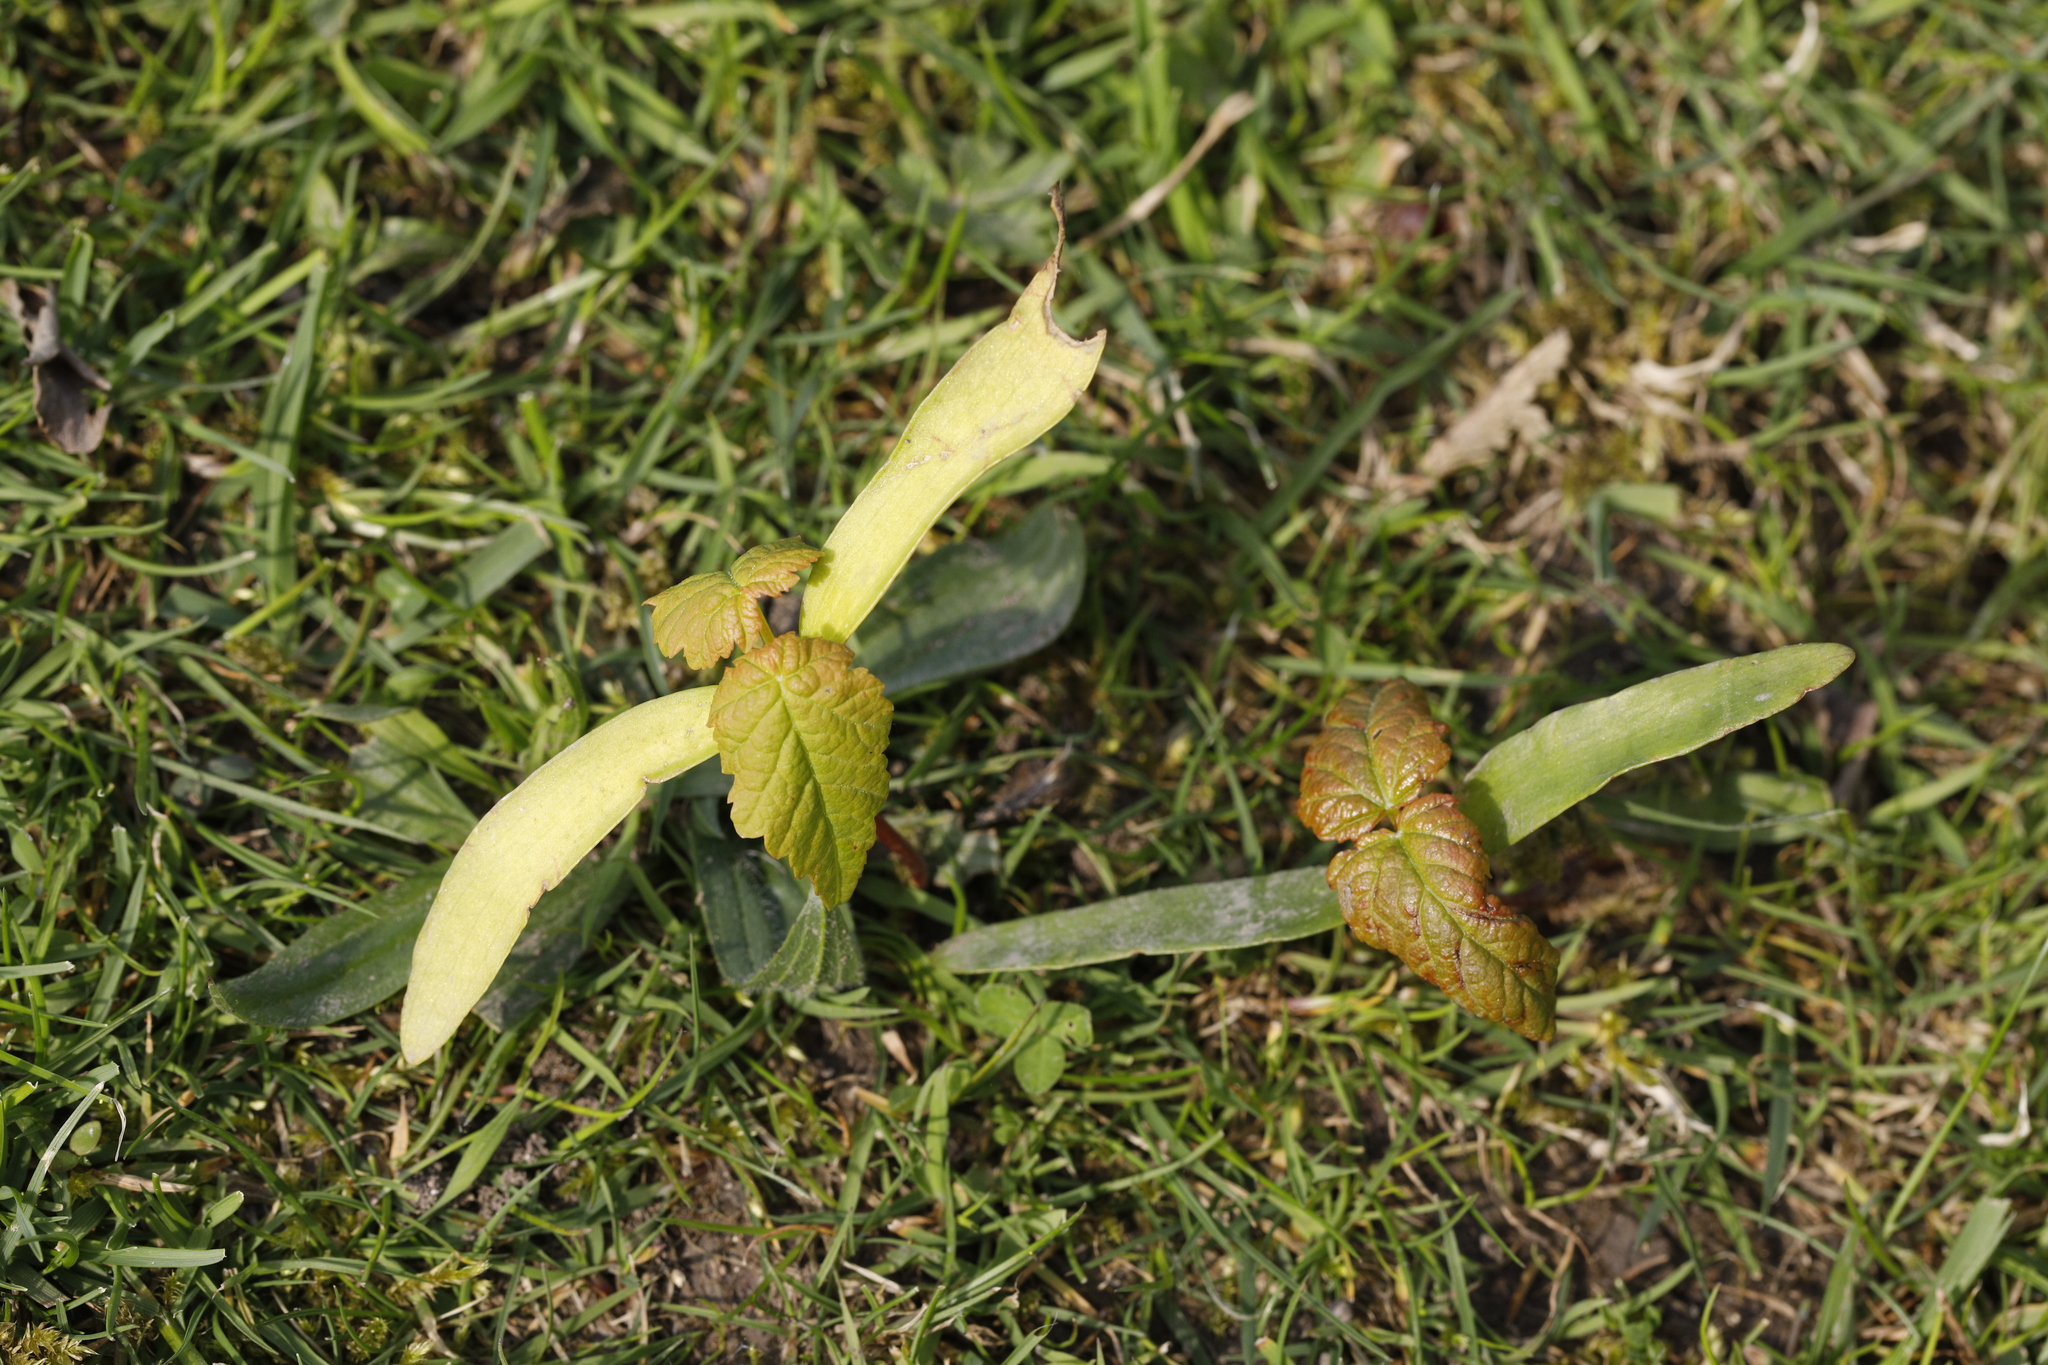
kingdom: Plantae
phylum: Tracheophyta
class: Magnoliopsida
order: Sapindales
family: Sapindaceae
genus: Acer
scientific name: Acer pseudoplatanus
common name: Sycamore
